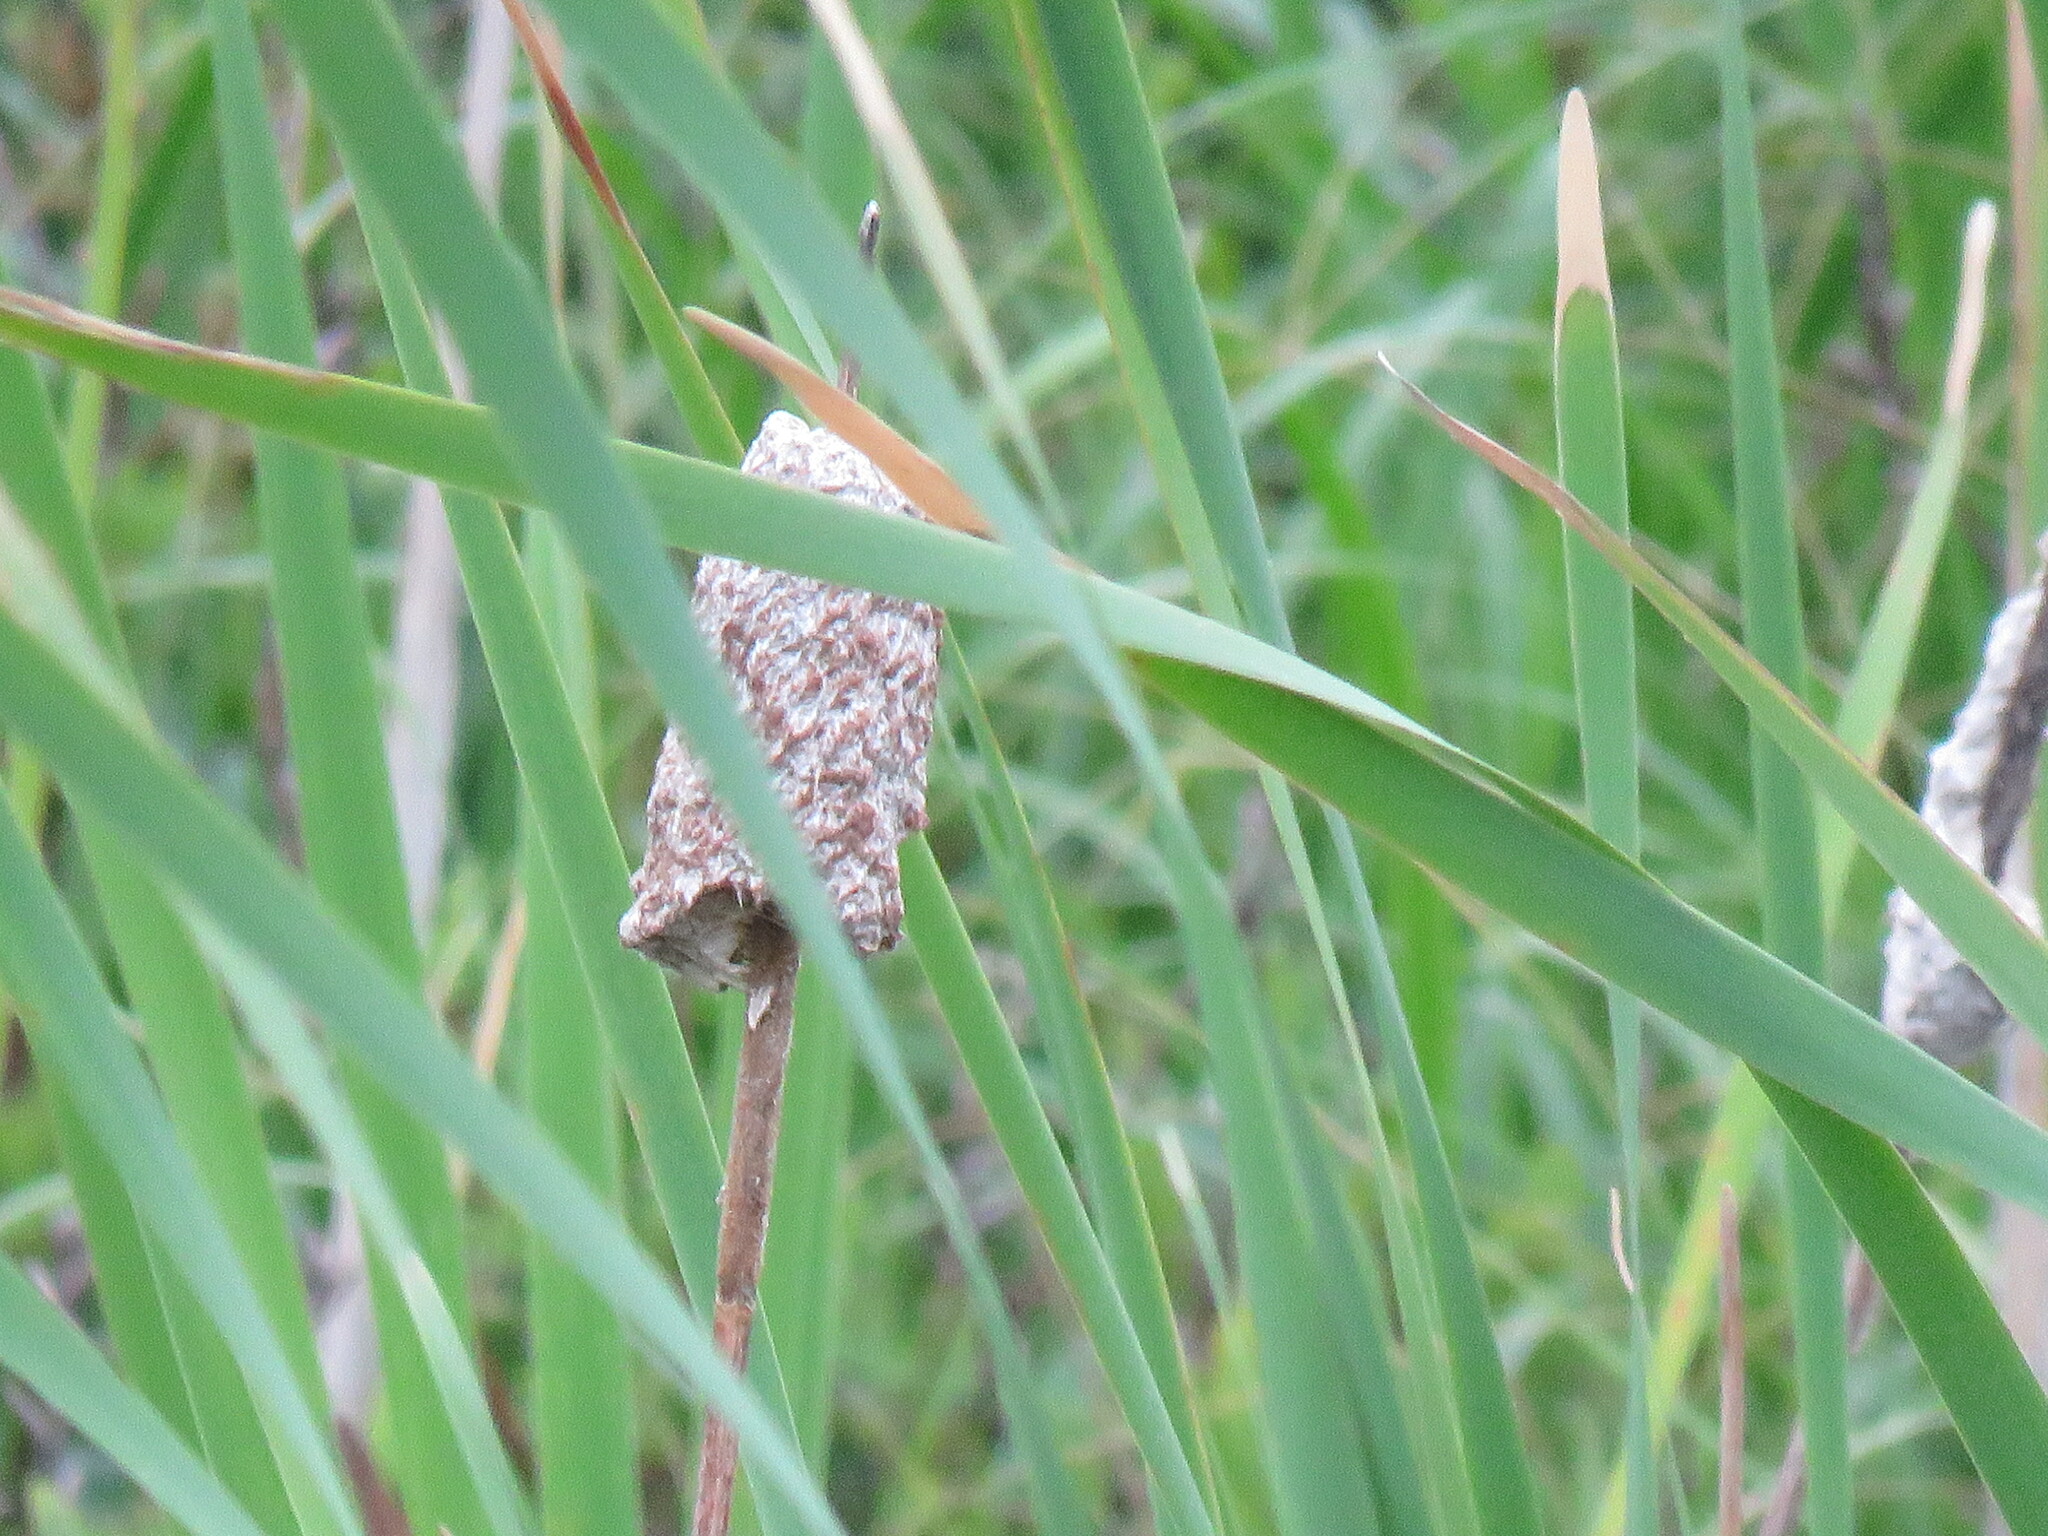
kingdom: Plantae
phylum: Tracheophyta
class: Liliopsida
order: Poales
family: Typhaceae
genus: Typha
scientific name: Typha latifolia
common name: Broadleaf cattail
